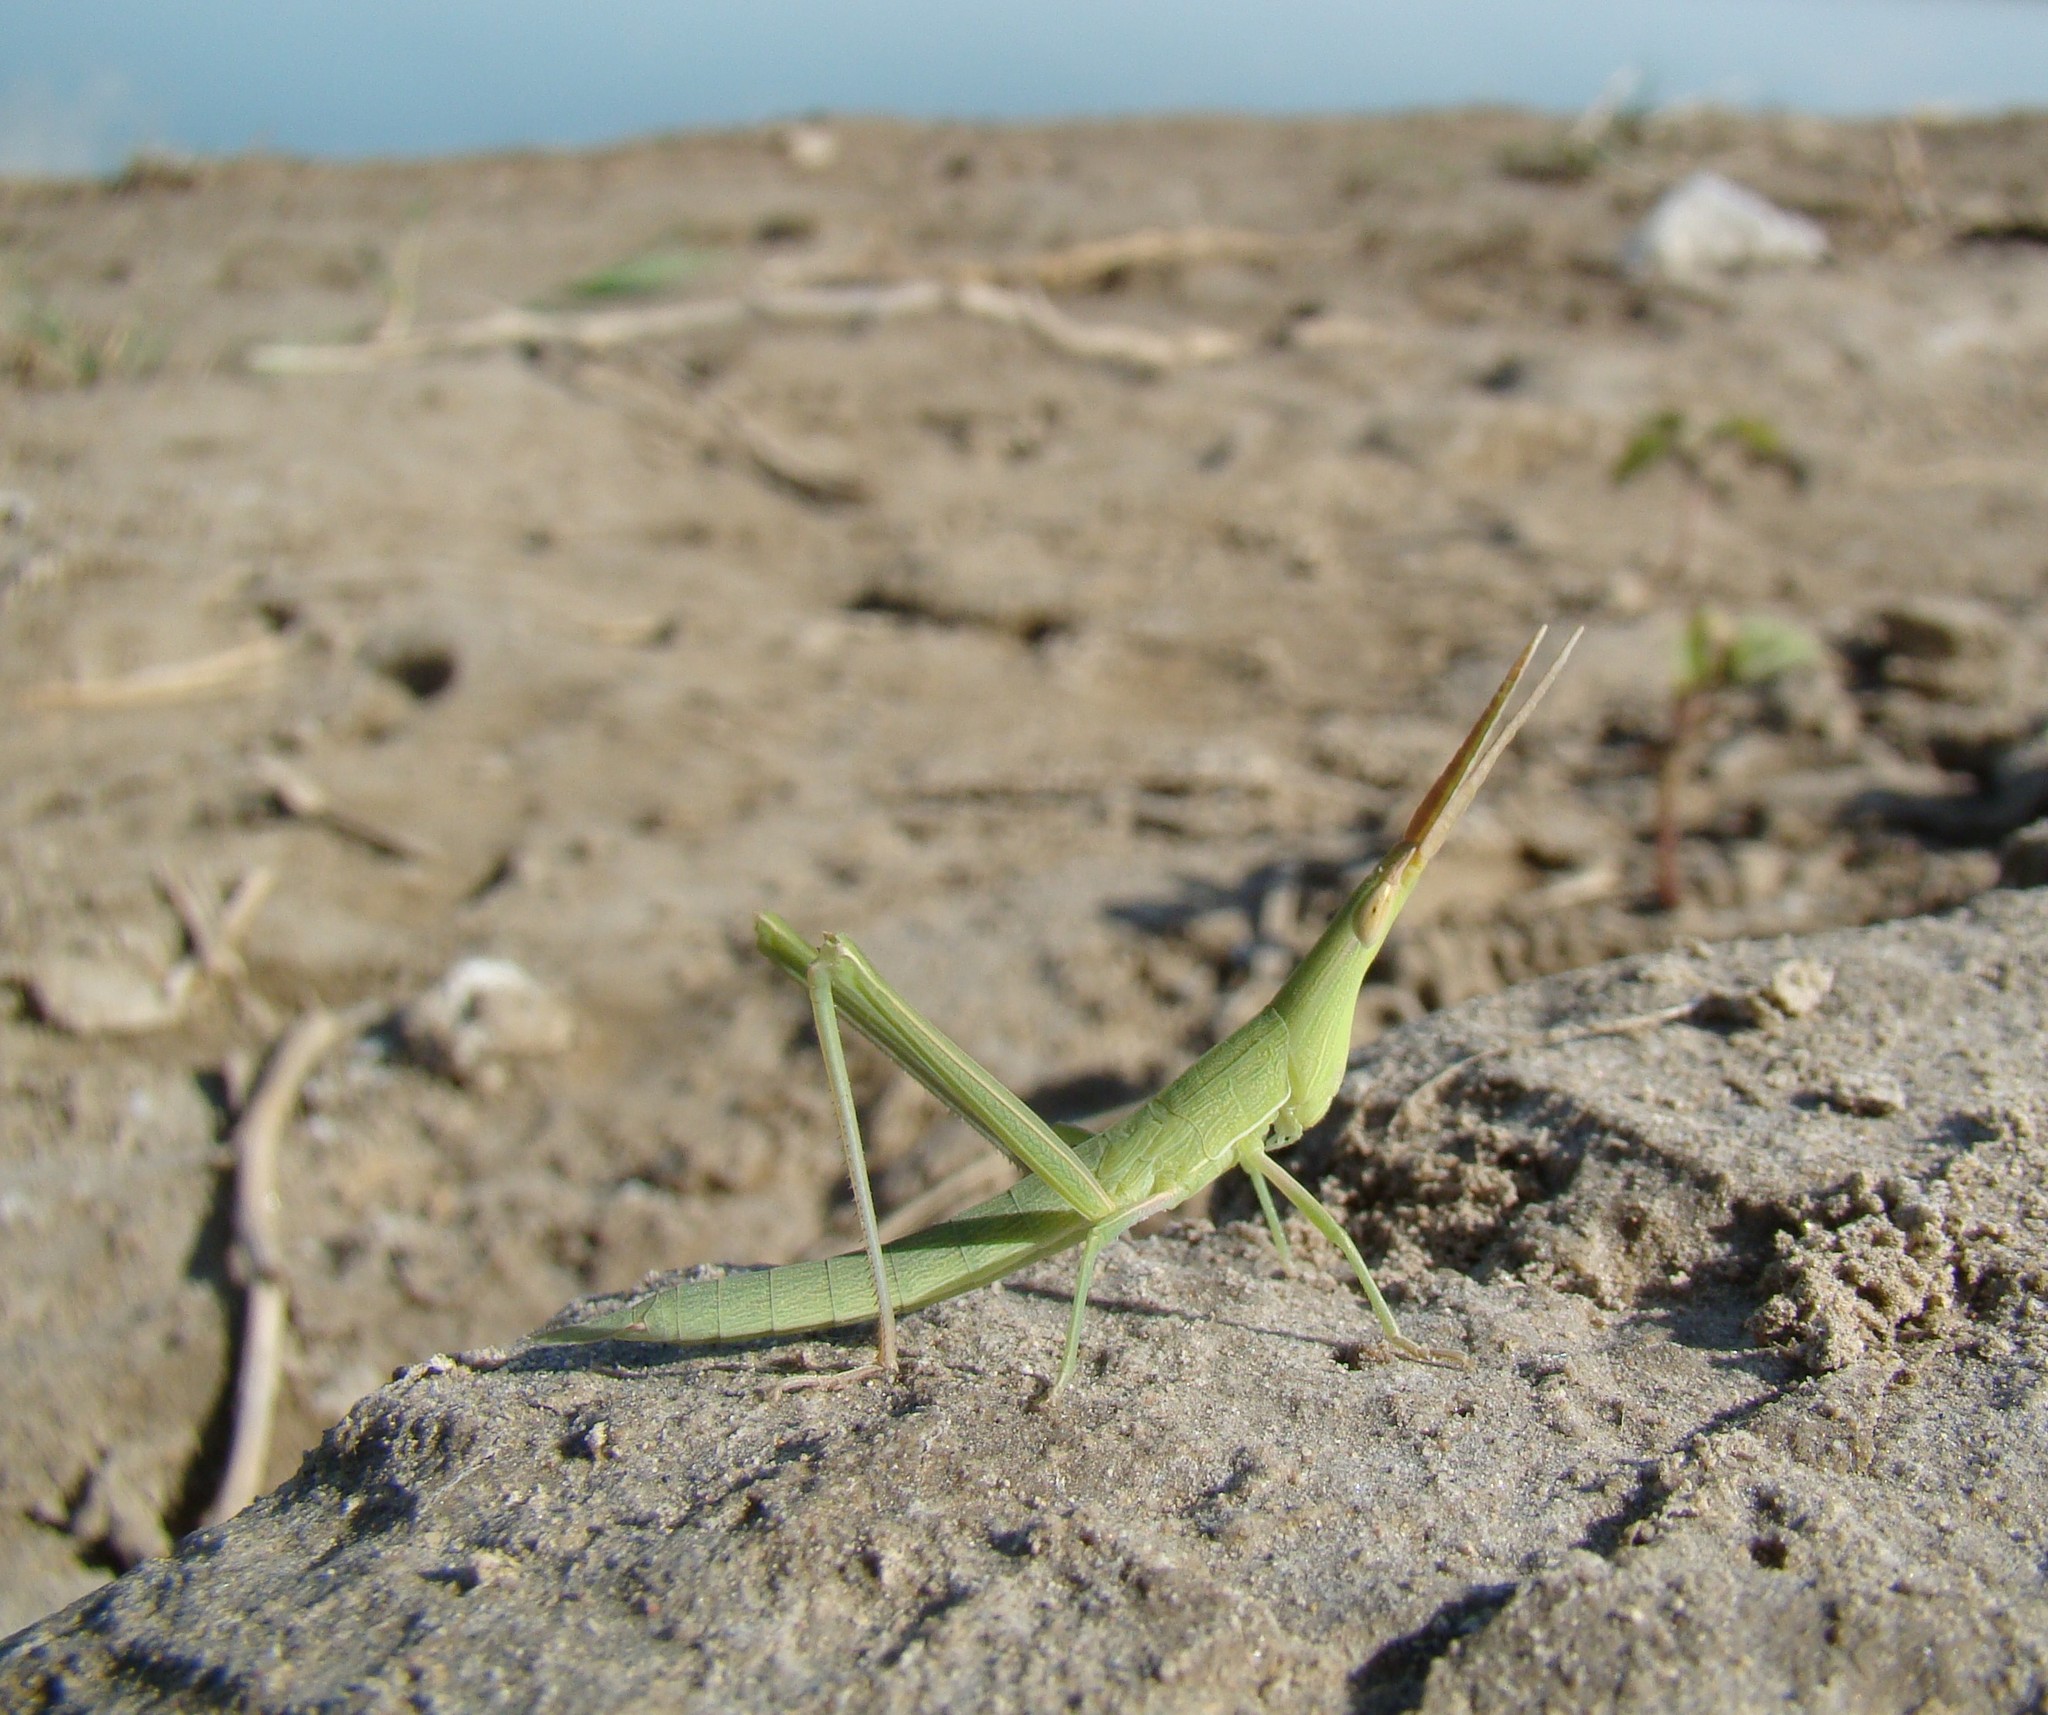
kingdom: Animalia
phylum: Arthropoda
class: Insecta
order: Orthoptera
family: Acrididae
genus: Acrida
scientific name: Acrida oxycephala
